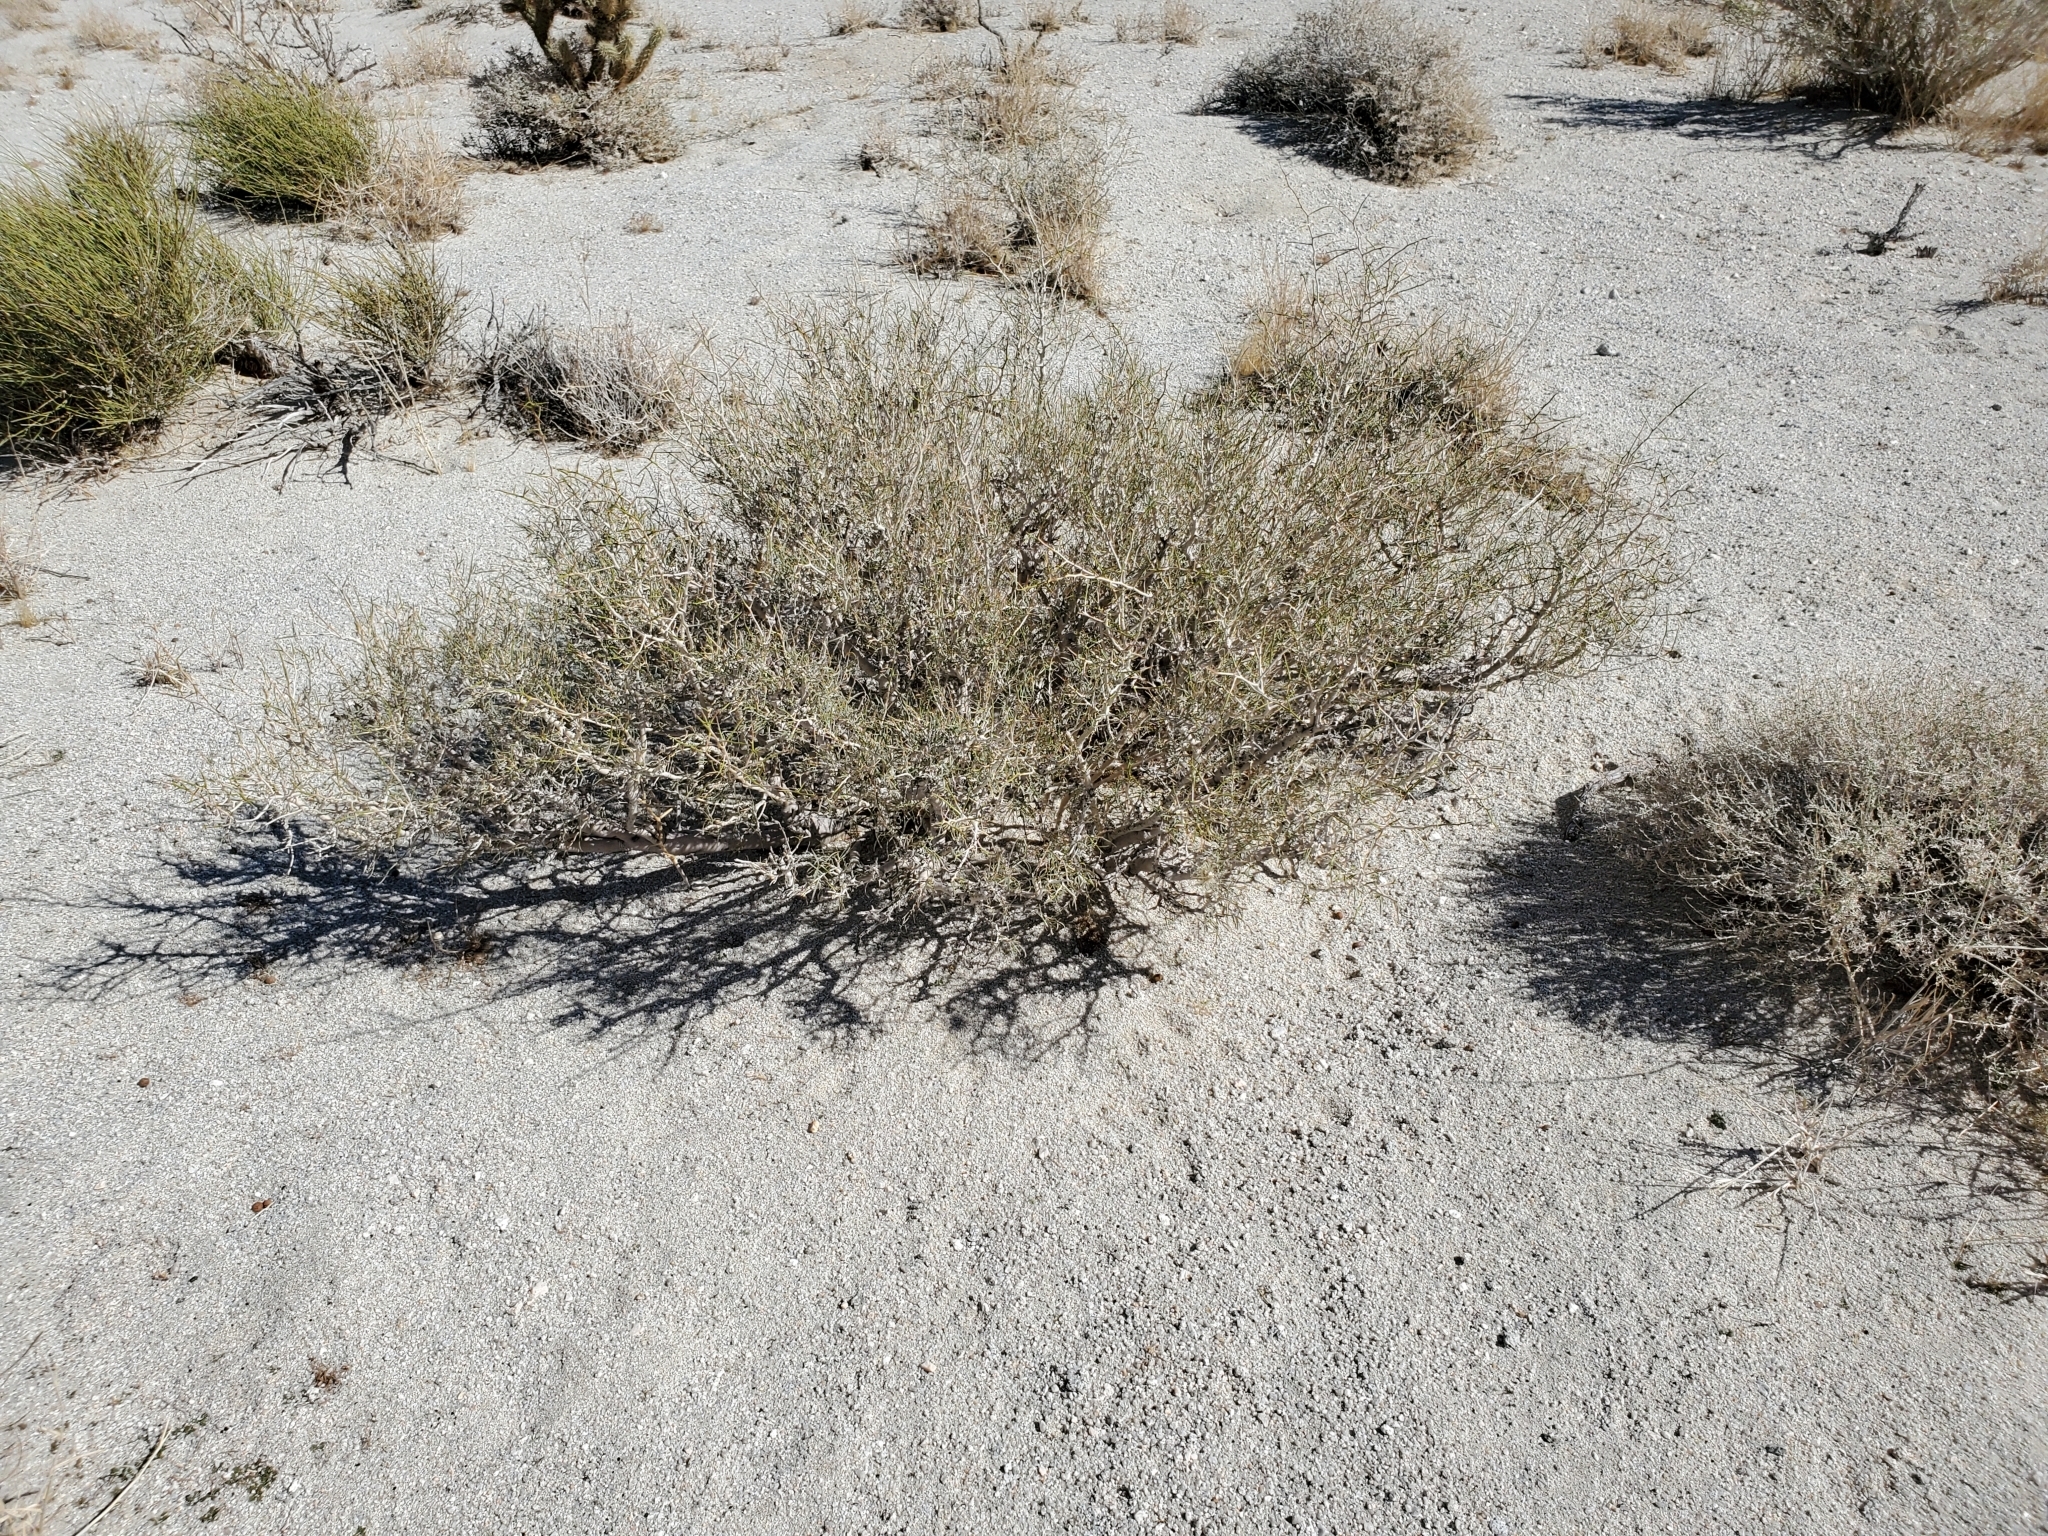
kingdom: Plantae
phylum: Tracheophyta
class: Magnoliopsida
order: Fabales
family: Fabaceae
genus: Psorothamnus
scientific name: Psorothamnus schottii
